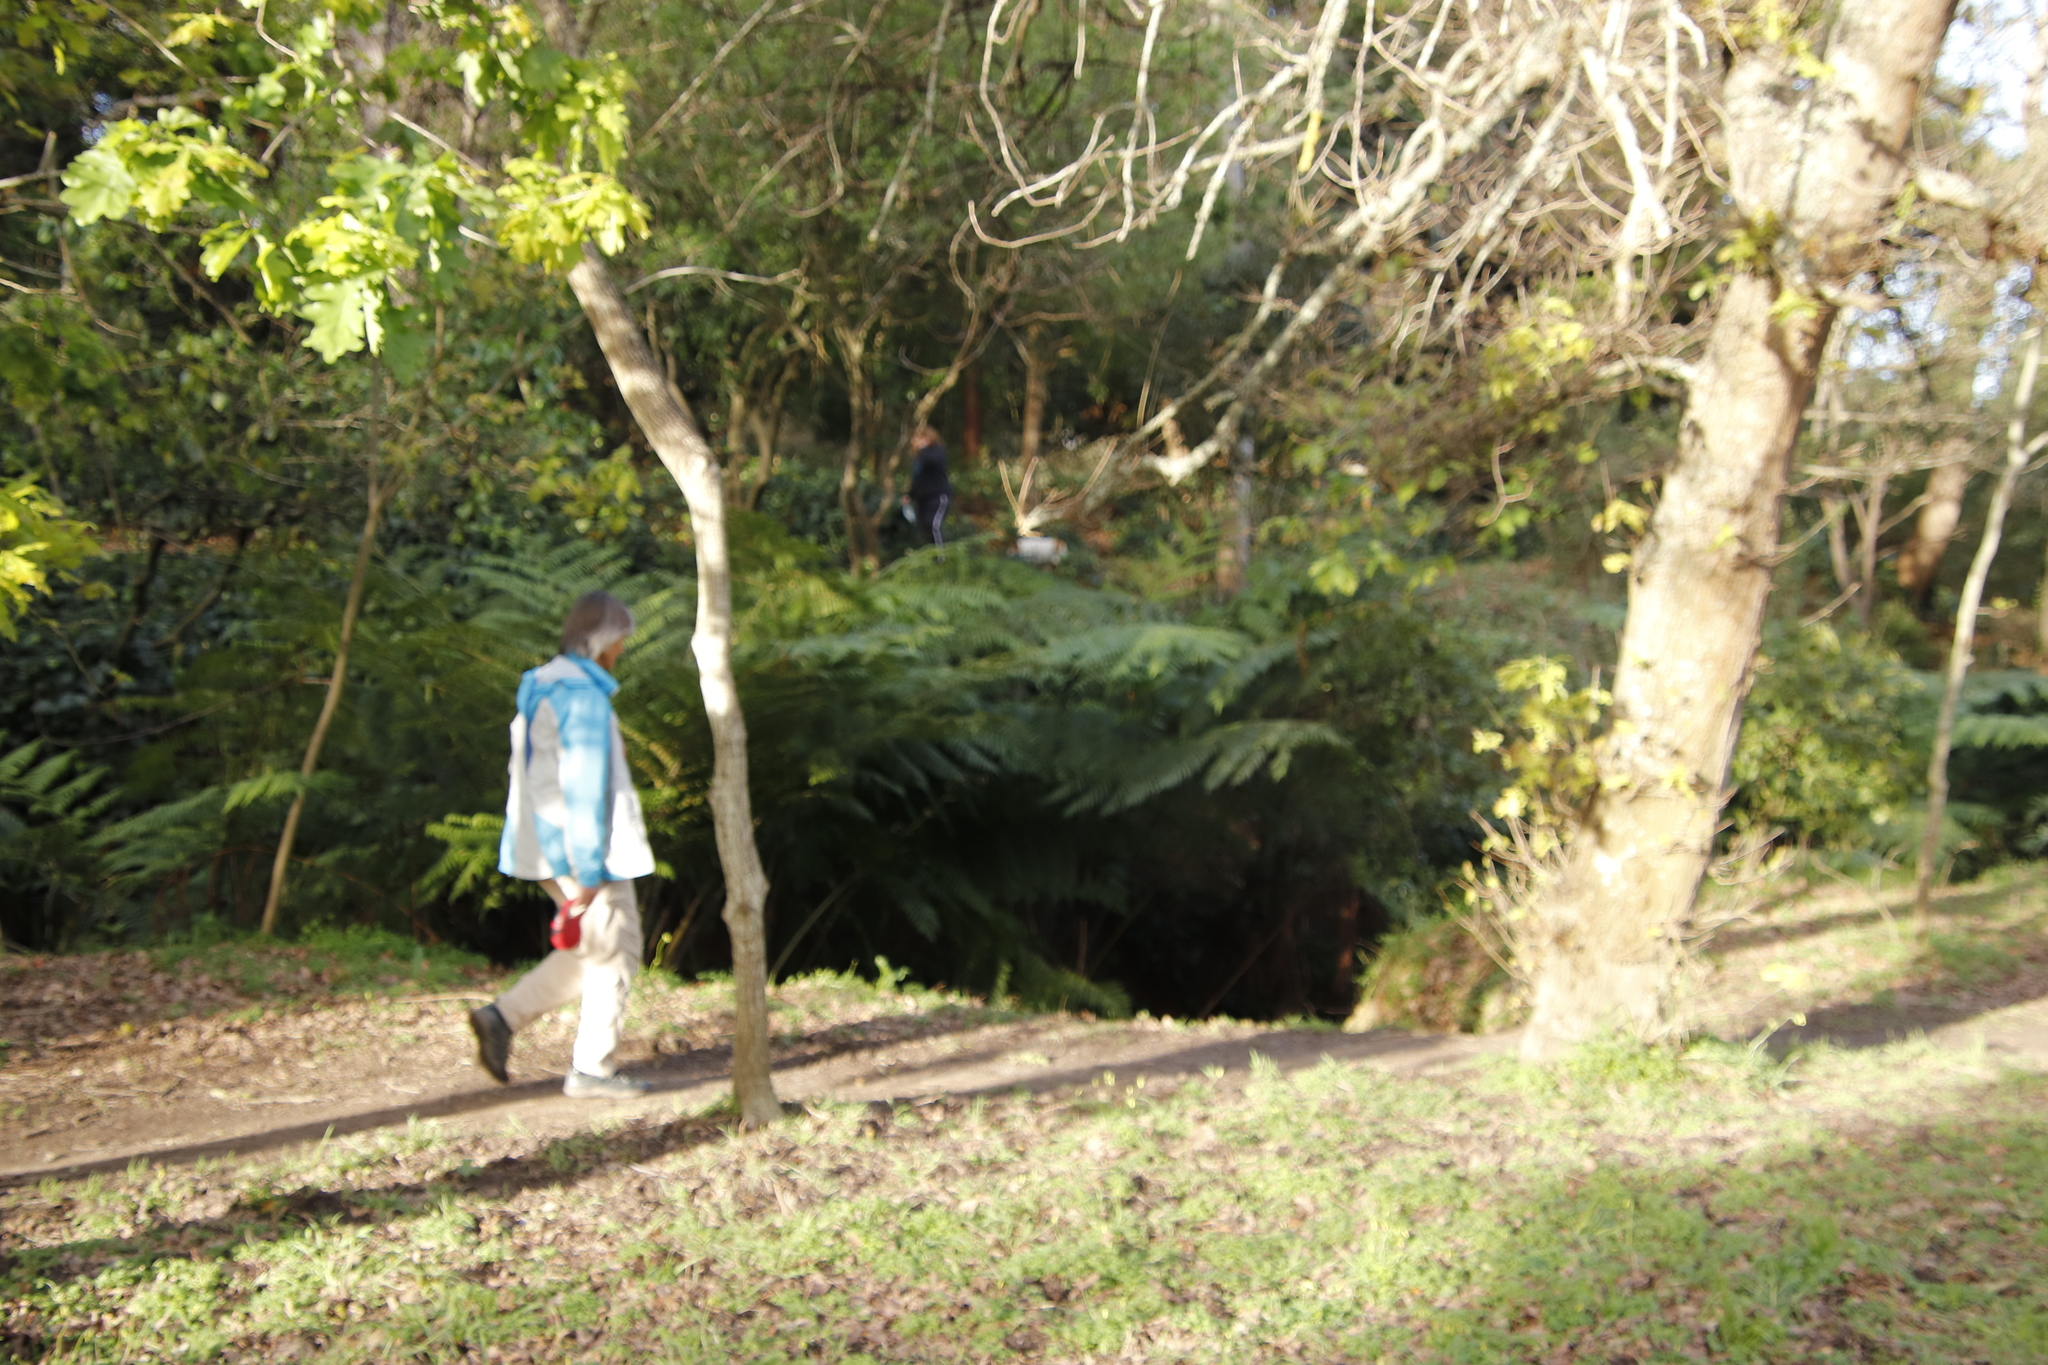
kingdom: Plantae
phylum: Tracheophyta
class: Polypodiopsida
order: Cyatheales
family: Cyatheaceae
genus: Sphaeropteris
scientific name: Sphaeropteris cooperi
